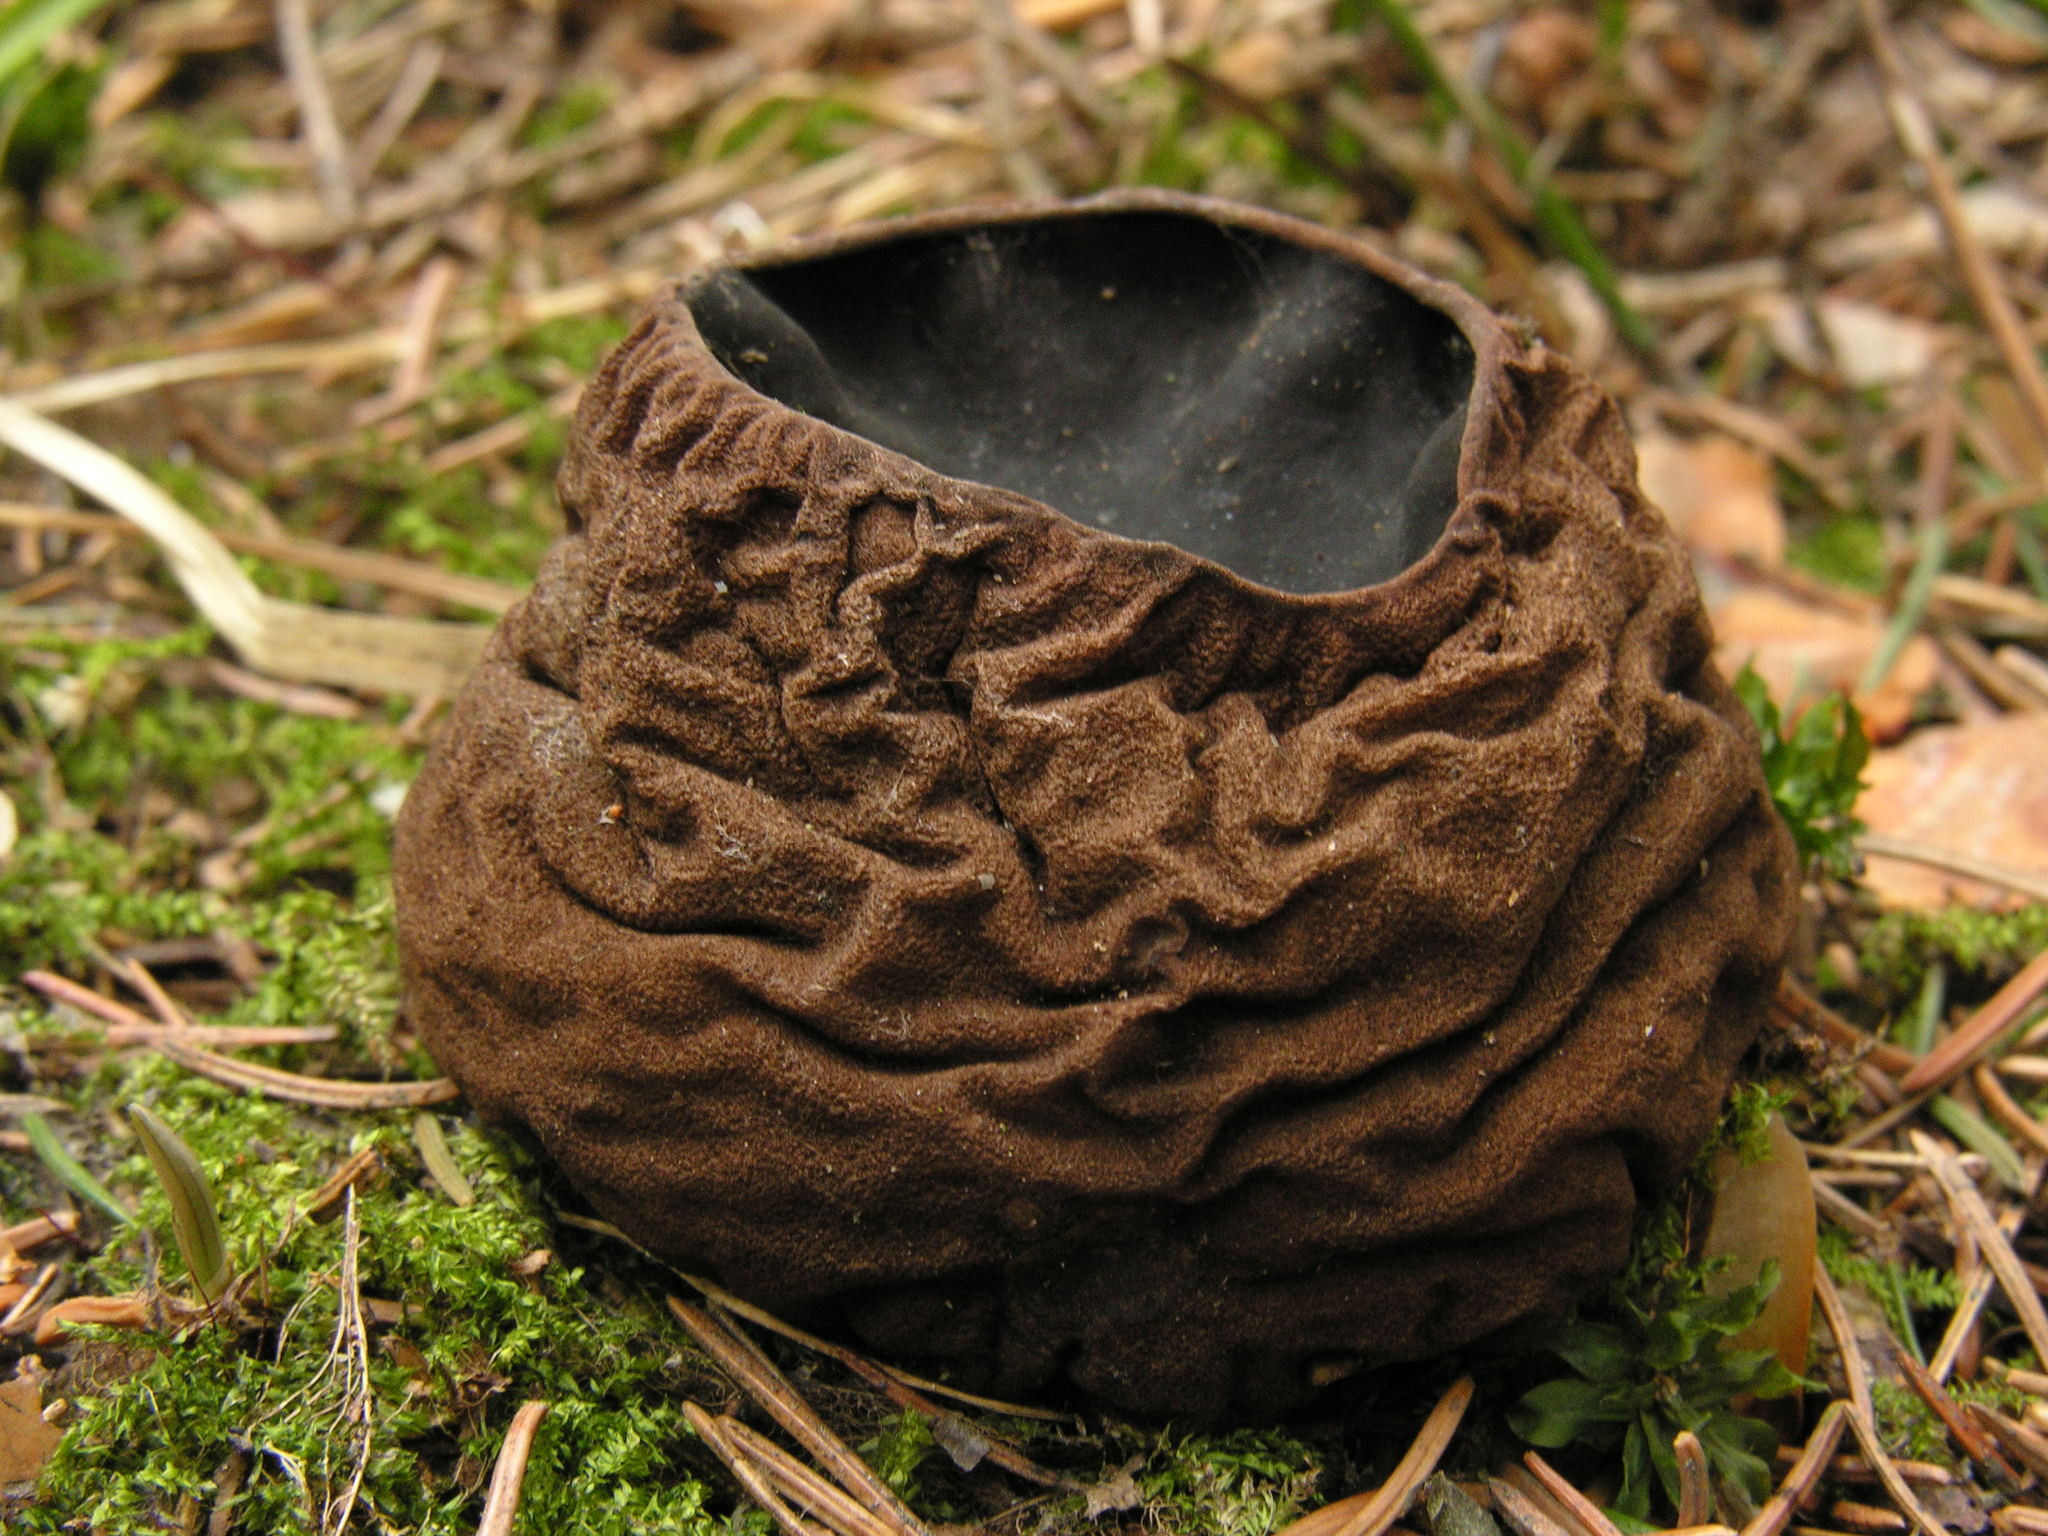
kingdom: Fungi
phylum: Ascomycota
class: Pezizomycetes
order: Pezizales
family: Sarcosomataceae
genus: Sarcosoma
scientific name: Sarcosoma globosum
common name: Charred-pancake cup
